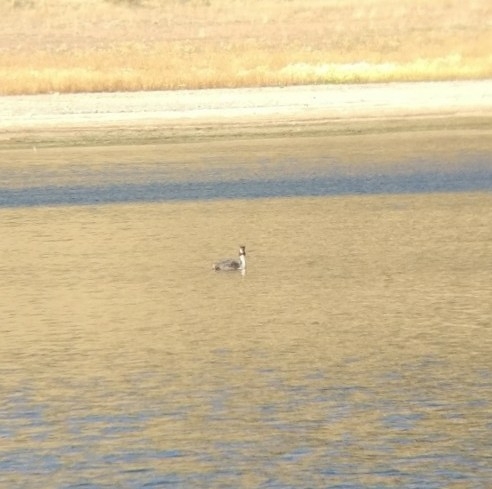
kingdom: Animalia
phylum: Chordata
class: Aves
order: Podicipediformes
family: Podicipedidae
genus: Podiceps
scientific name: Podiceps cristatus
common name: Great crested grebe
